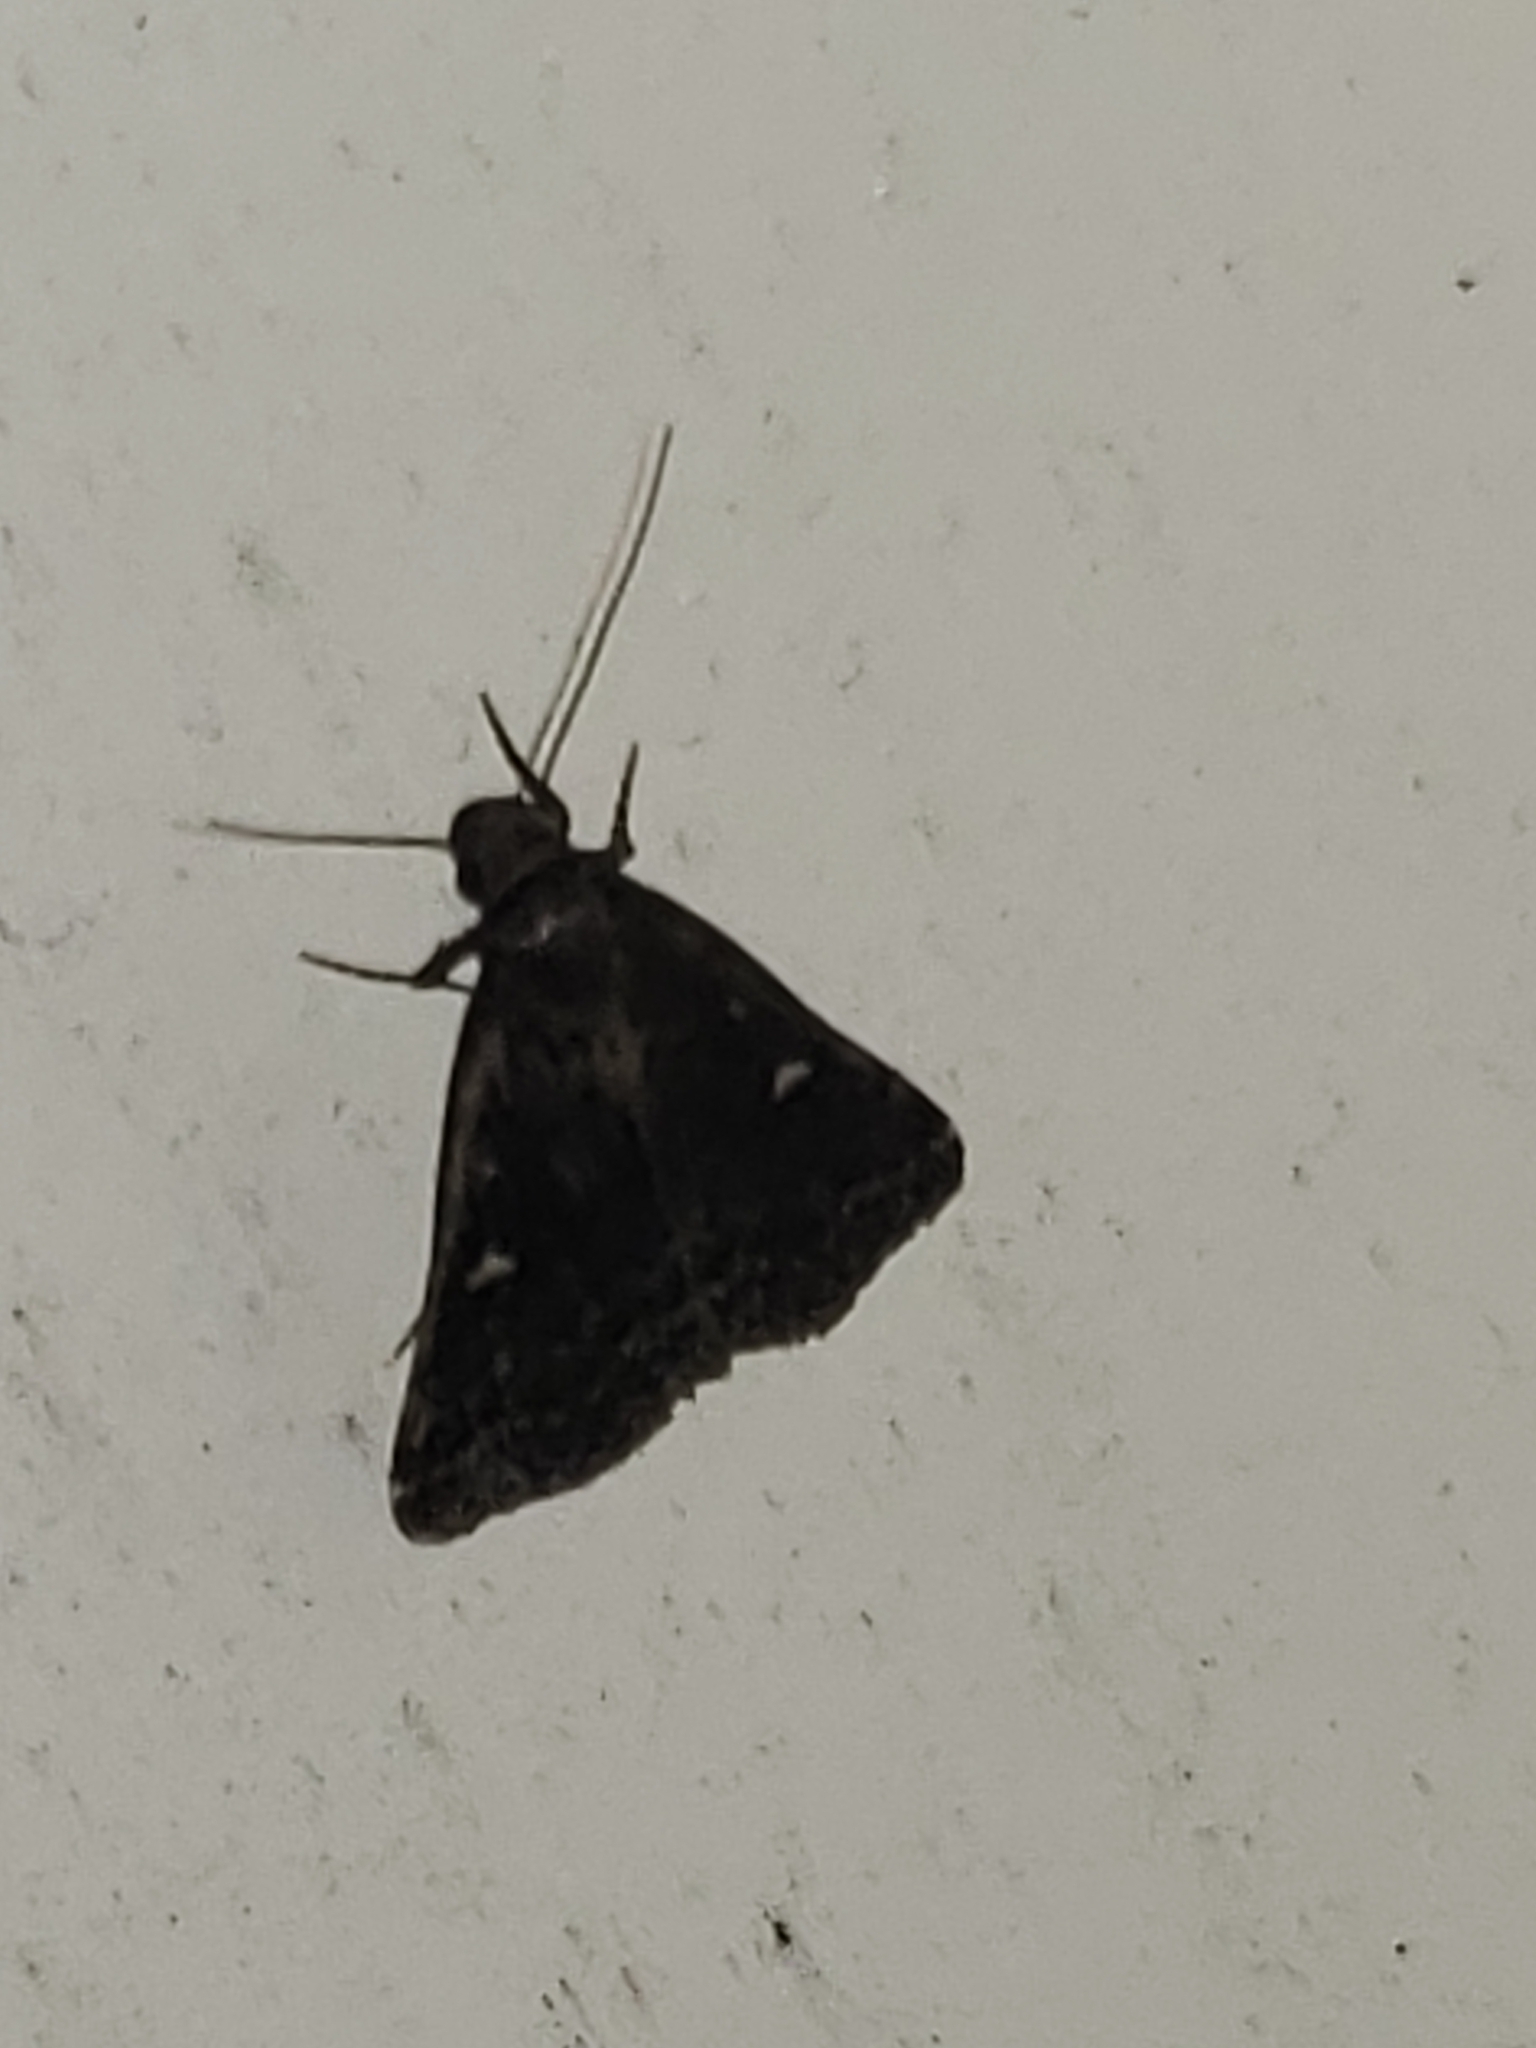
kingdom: Animalia
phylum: Arthropoda
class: Insecta
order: Lepidoptera
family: Erebidae
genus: Tetanolita
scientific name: Tetanolita mynesalis
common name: Smoky tetanolita moth
